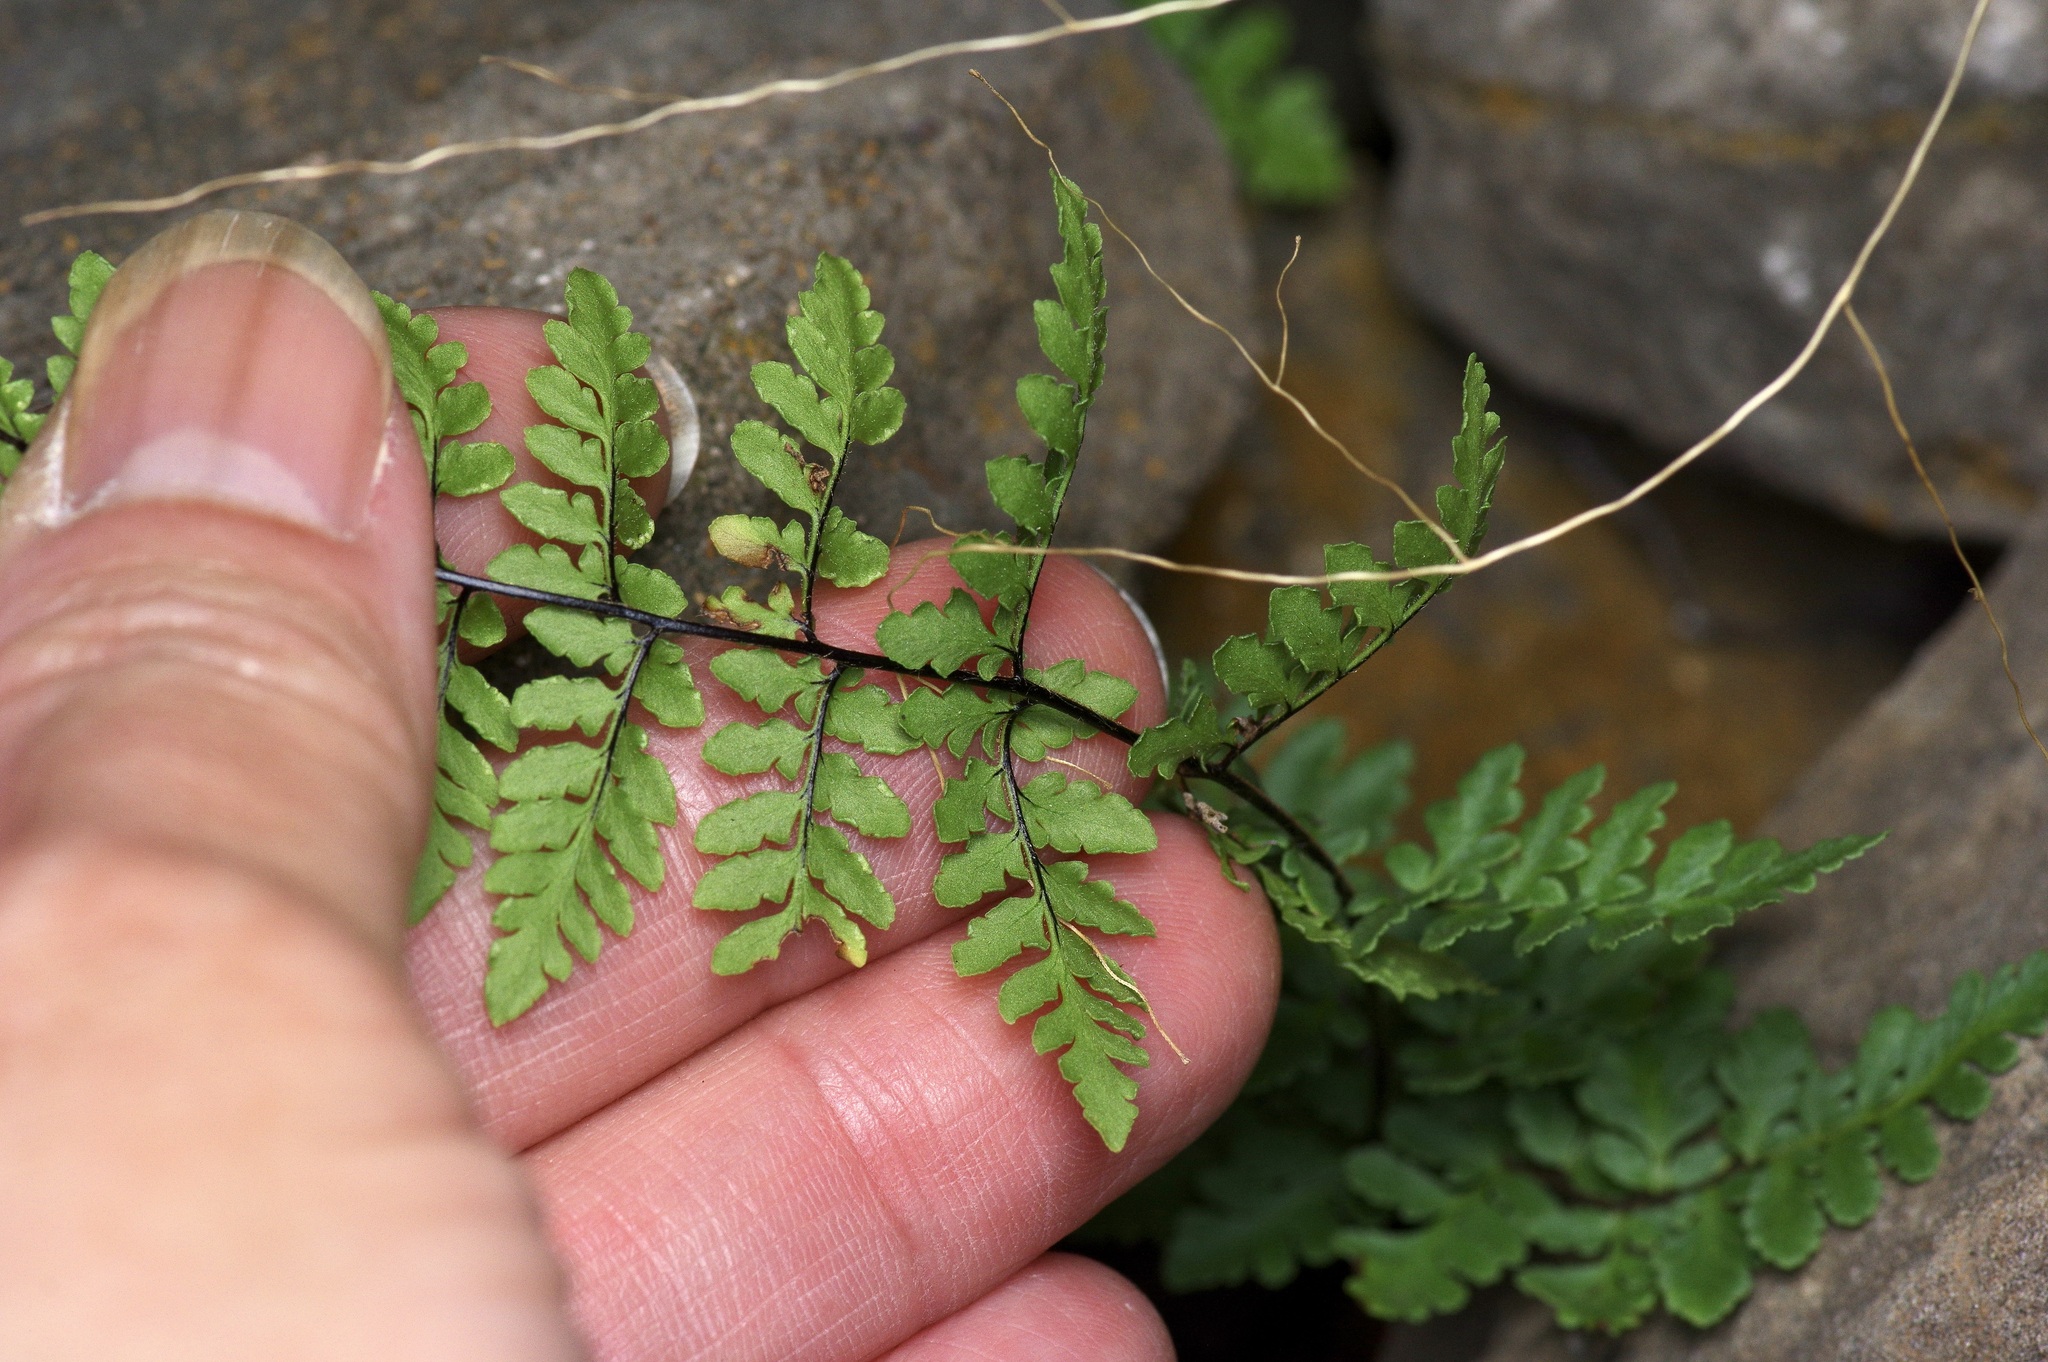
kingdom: Plantae
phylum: Tracheophyta
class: Polypodiopsida
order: Polypodiales
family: Pteridaceae
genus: Myriopteris
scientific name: Myriopteris alabamensis
